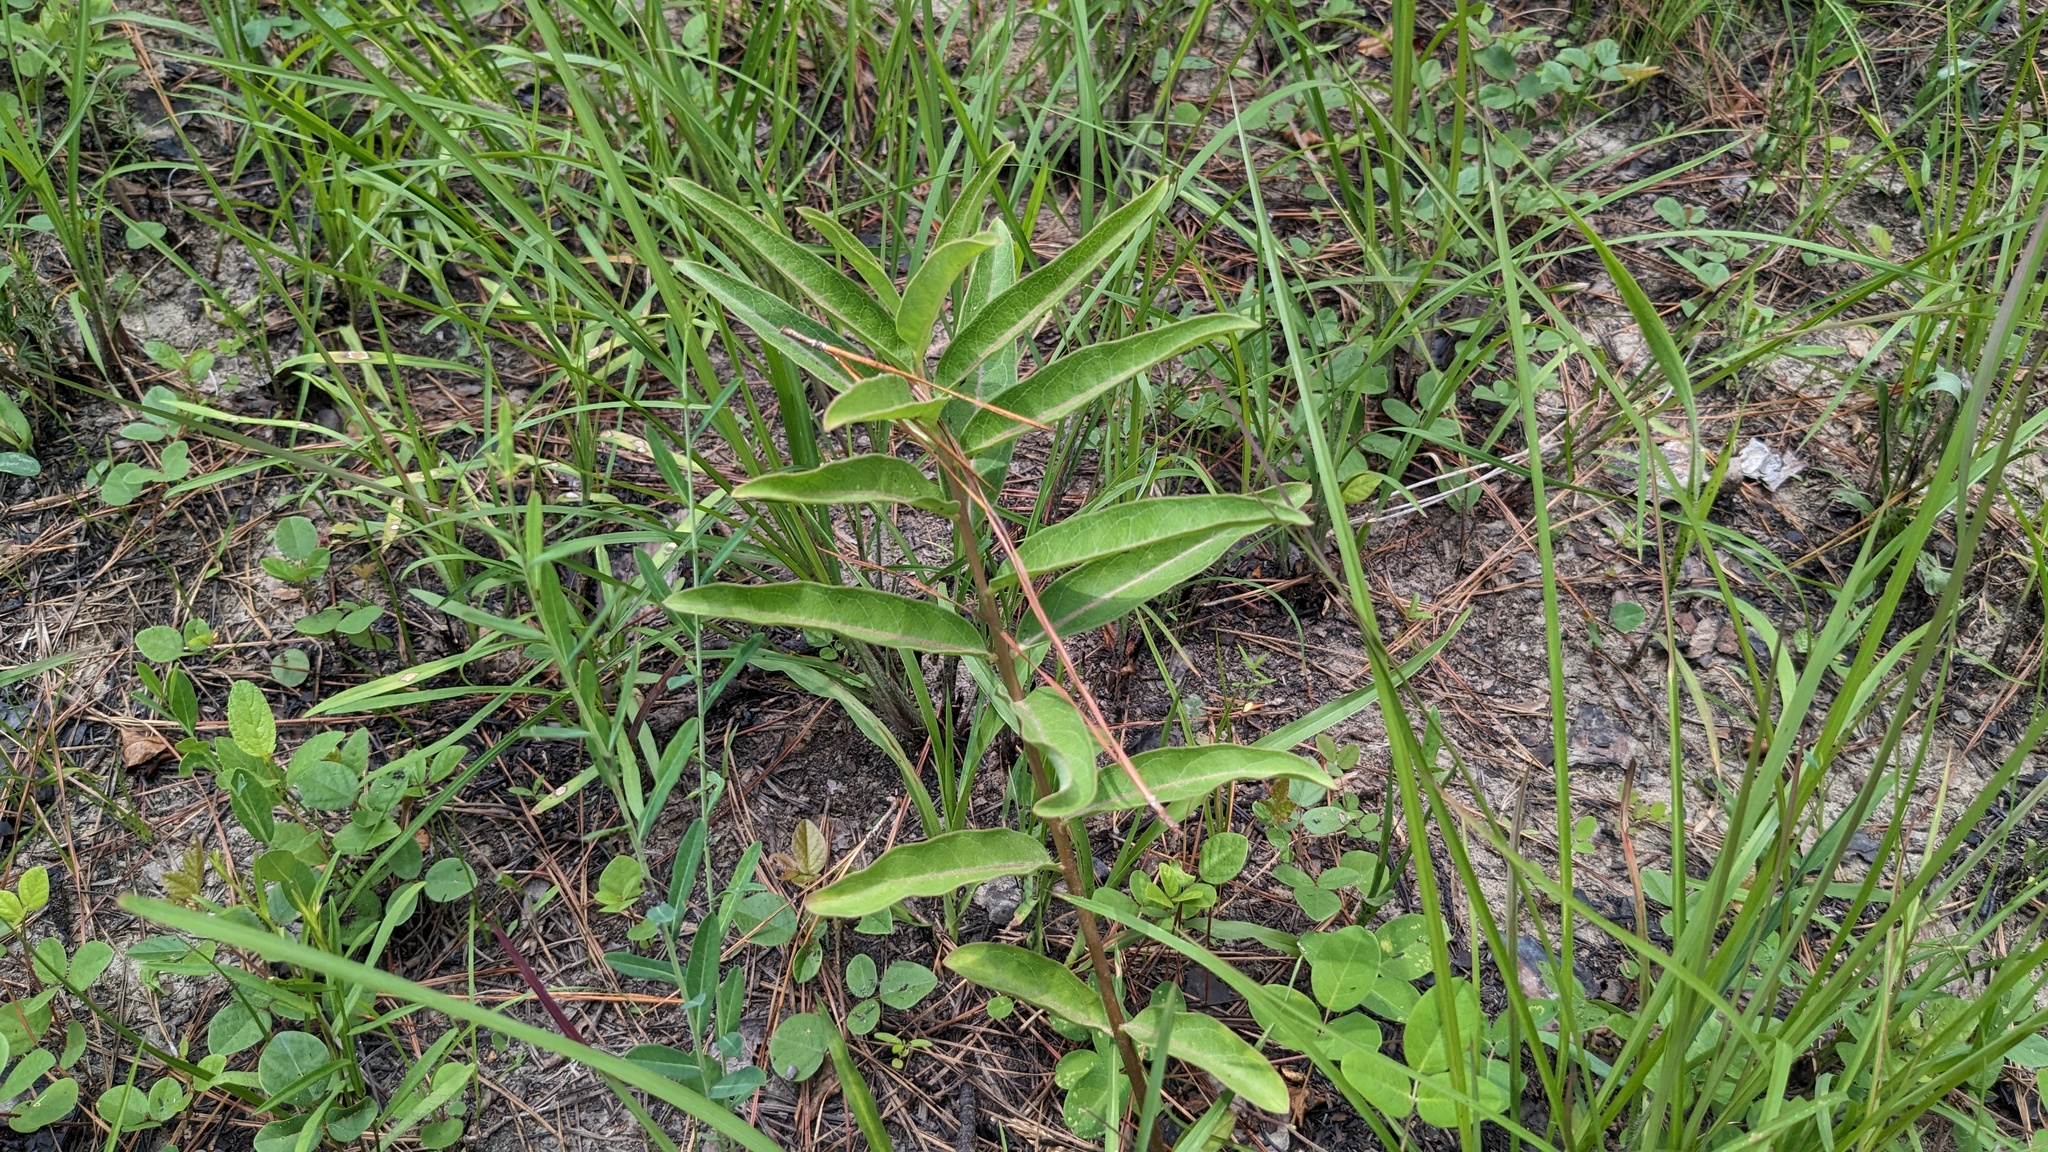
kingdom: Plantae
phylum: Tracheophyta
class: Magnoliopsida
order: Gentianales
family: Apocynaceae
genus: Asclepias
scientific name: Asclepias viridis
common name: Antelope-horns
